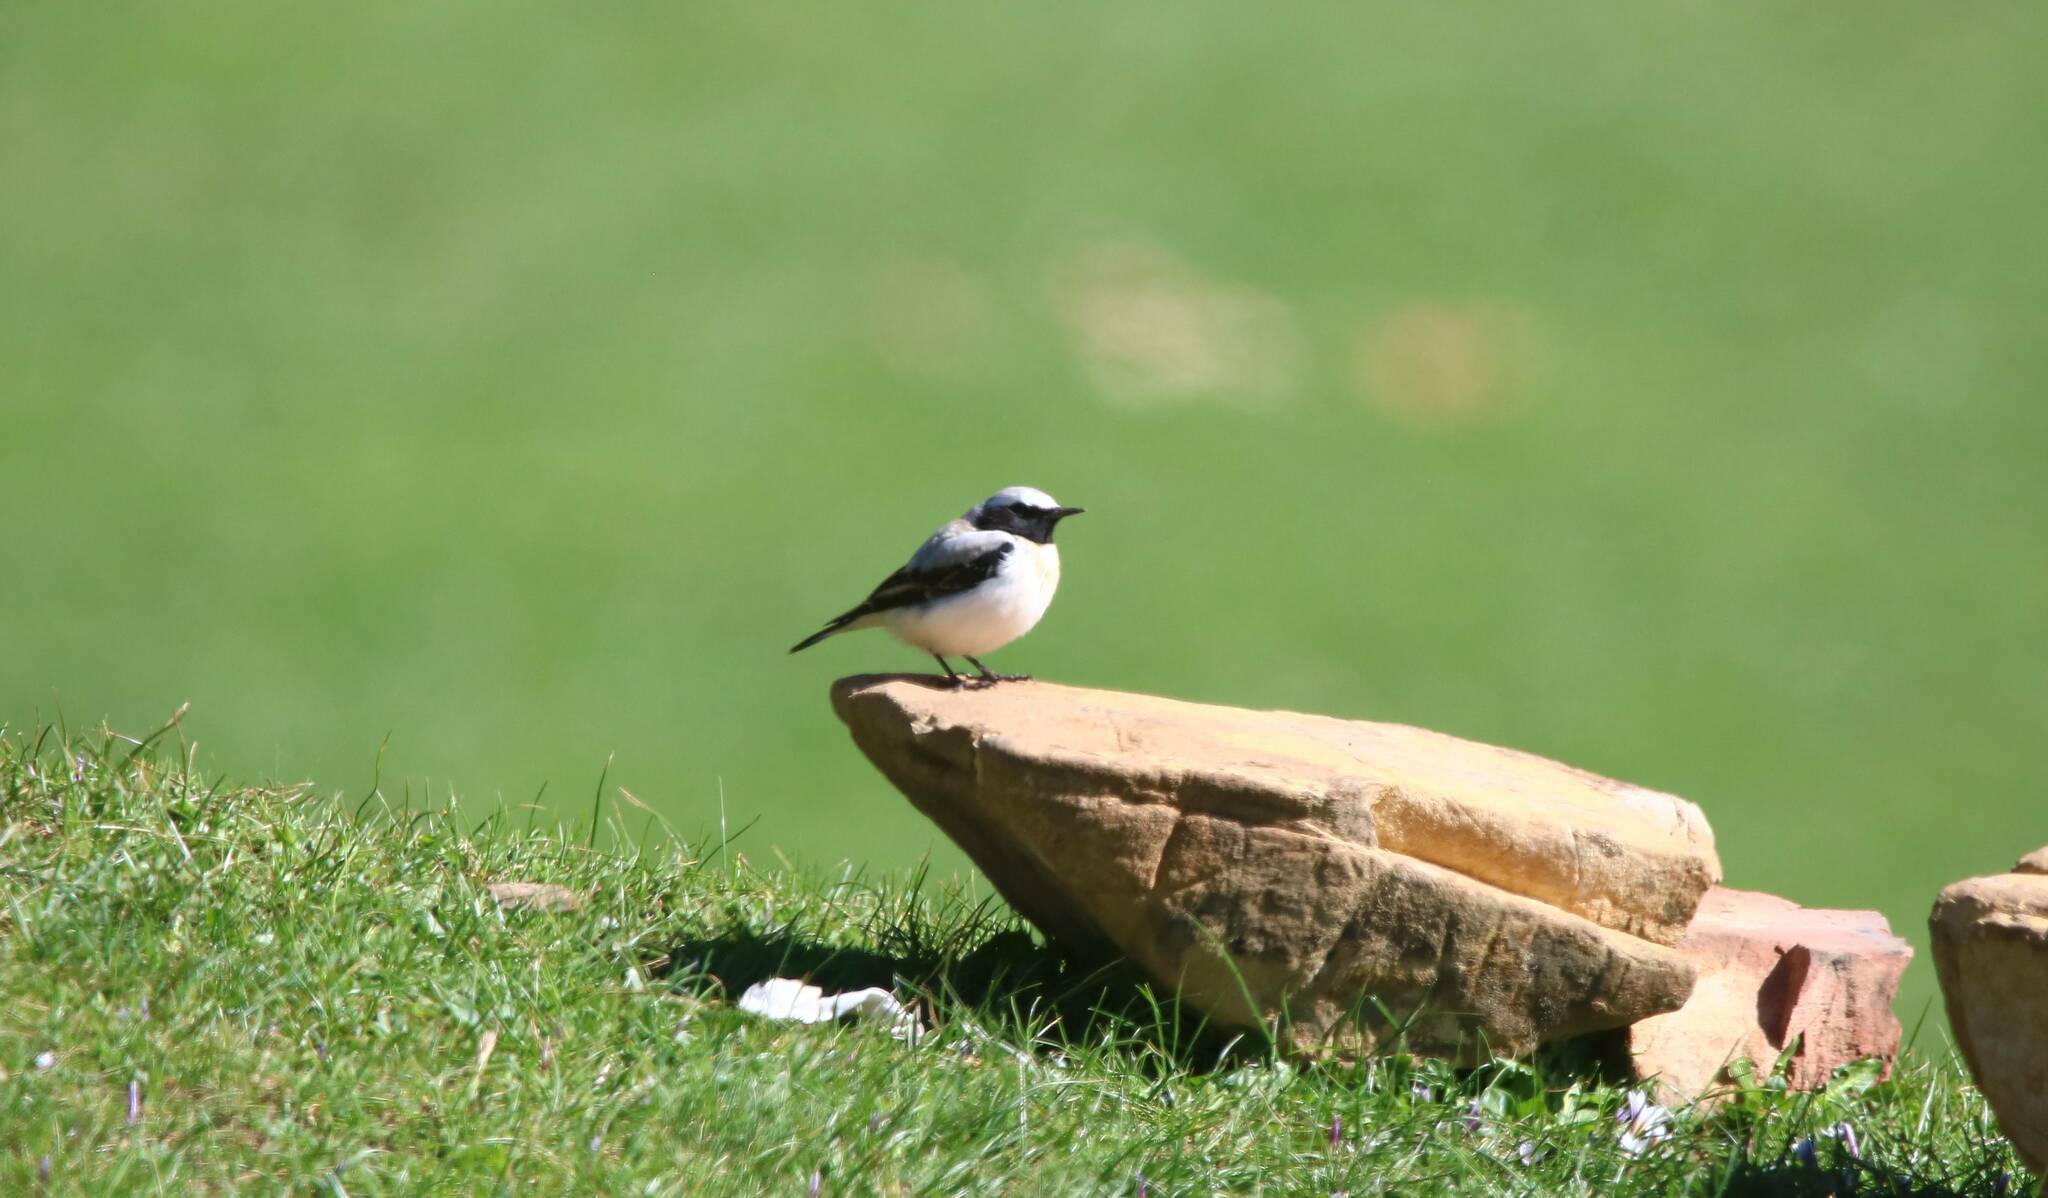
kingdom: Animalia
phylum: Chordata
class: Aves
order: Passeriformes
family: Muscicapidae
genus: Oenanthe
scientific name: Oenanthe oenanthe
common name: Northern wheatear
